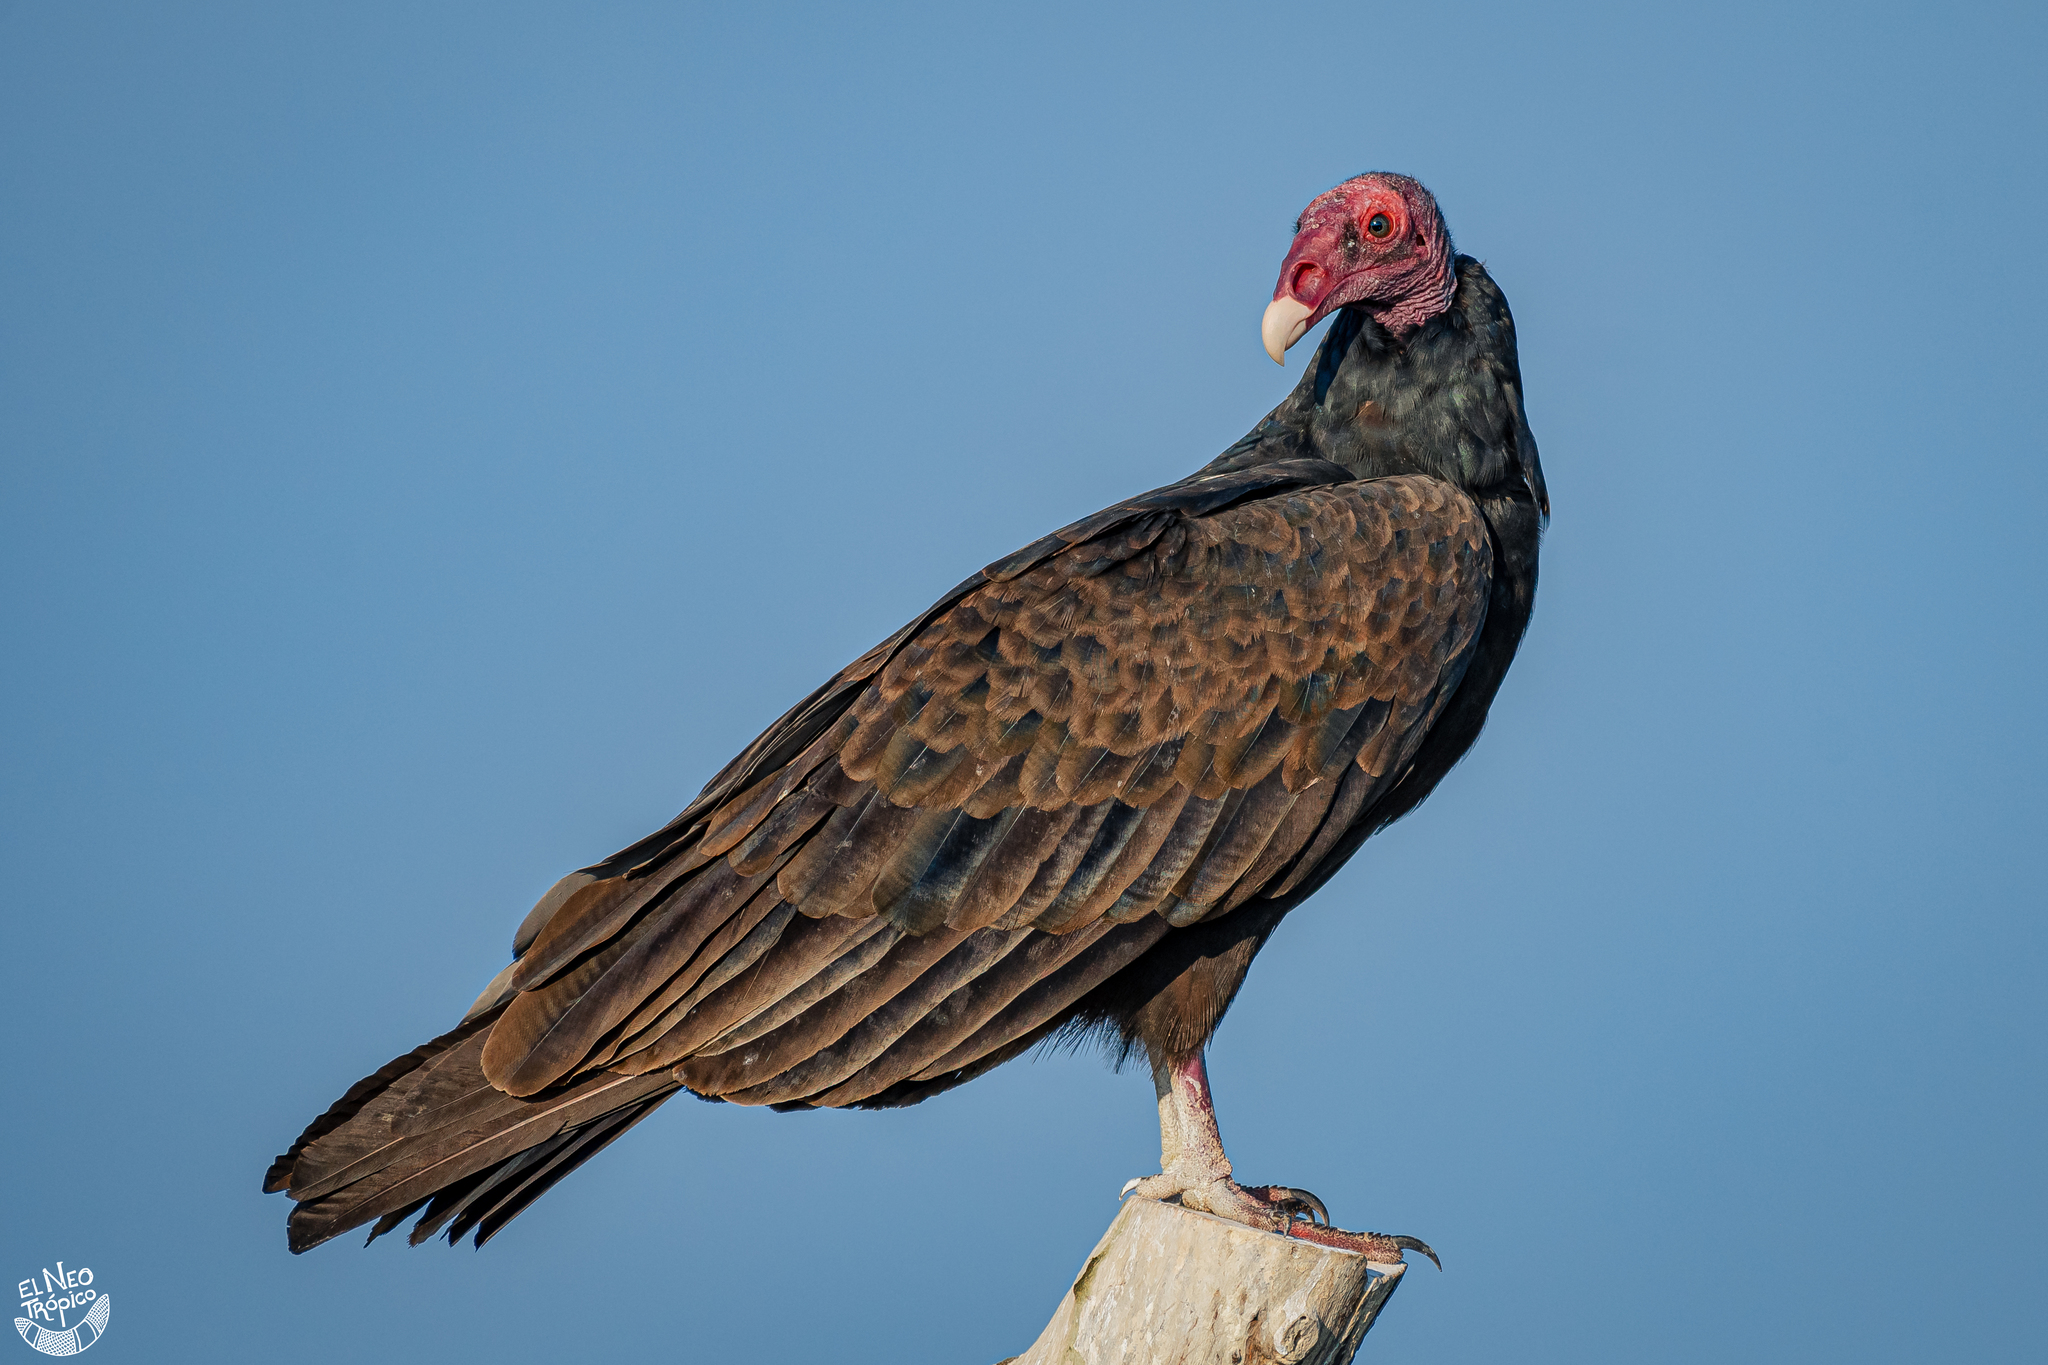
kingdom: Animalia
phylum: Chordata
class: Aves
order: Accipitriformes
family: Cathartidae
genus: Cathartes
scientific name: Cathartes aura
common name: Turkey vulture
